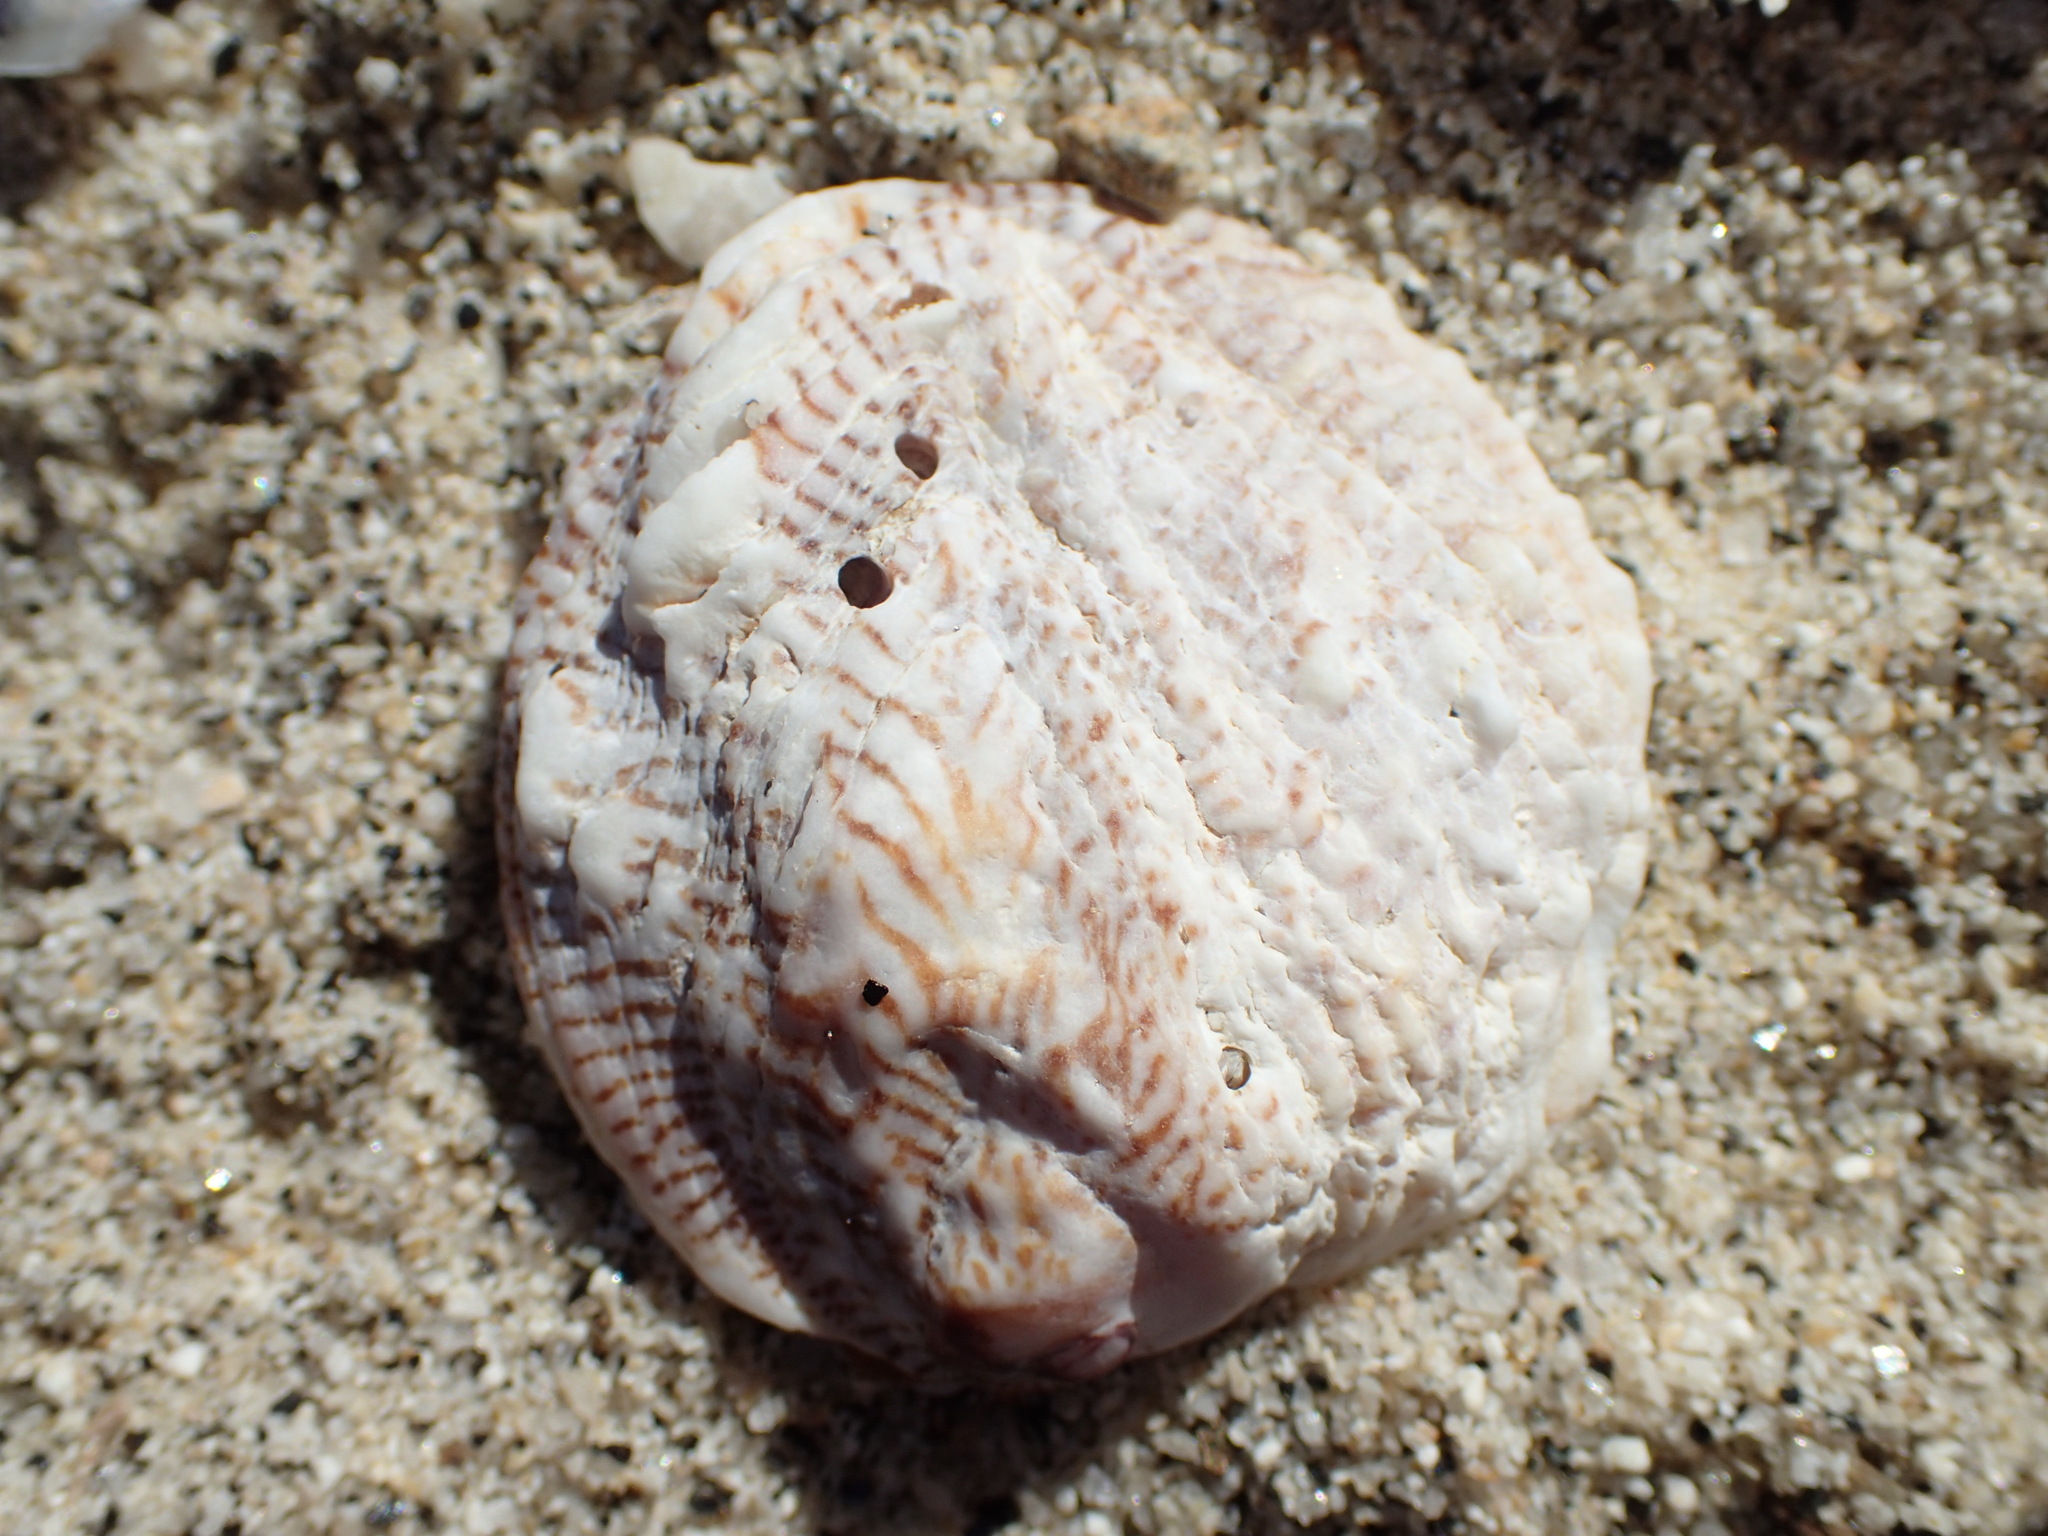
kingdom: Animalia
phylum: Mollusca
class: Bivalvia
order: Venerida
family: Chamidae
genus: Pseudochama
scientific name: Pseudochama picta
